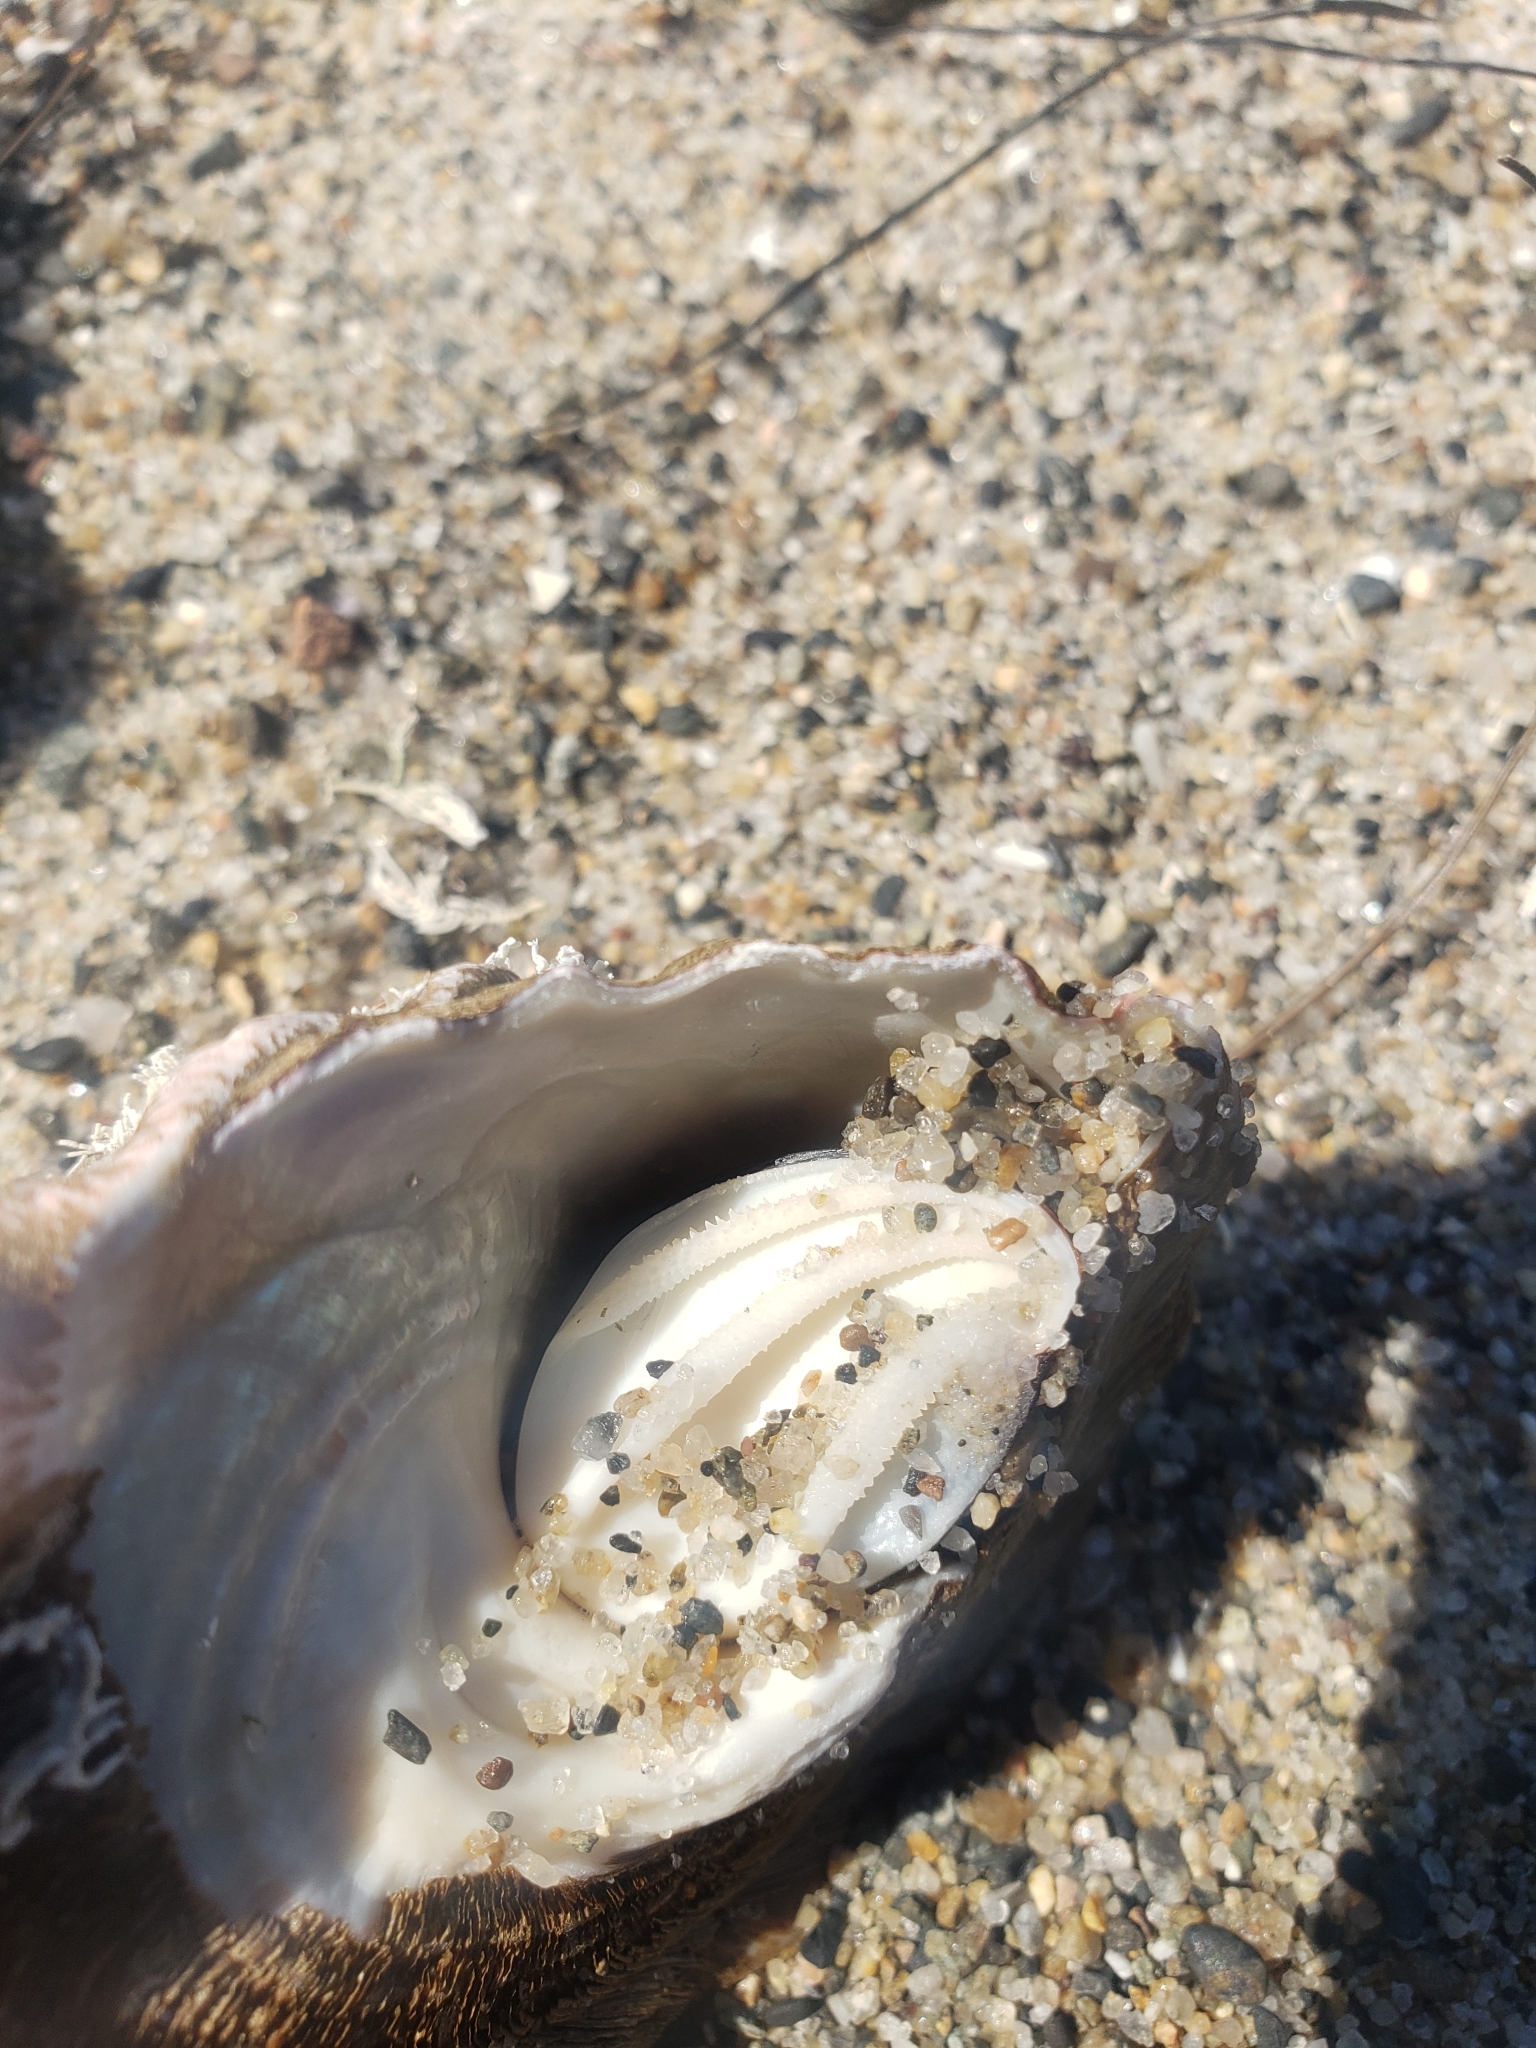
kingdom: Animalia
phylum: Mollusca
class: Gastropoda
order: Trochida
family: Turbinidae
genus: Megastraea
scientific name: Megastraea undosa
